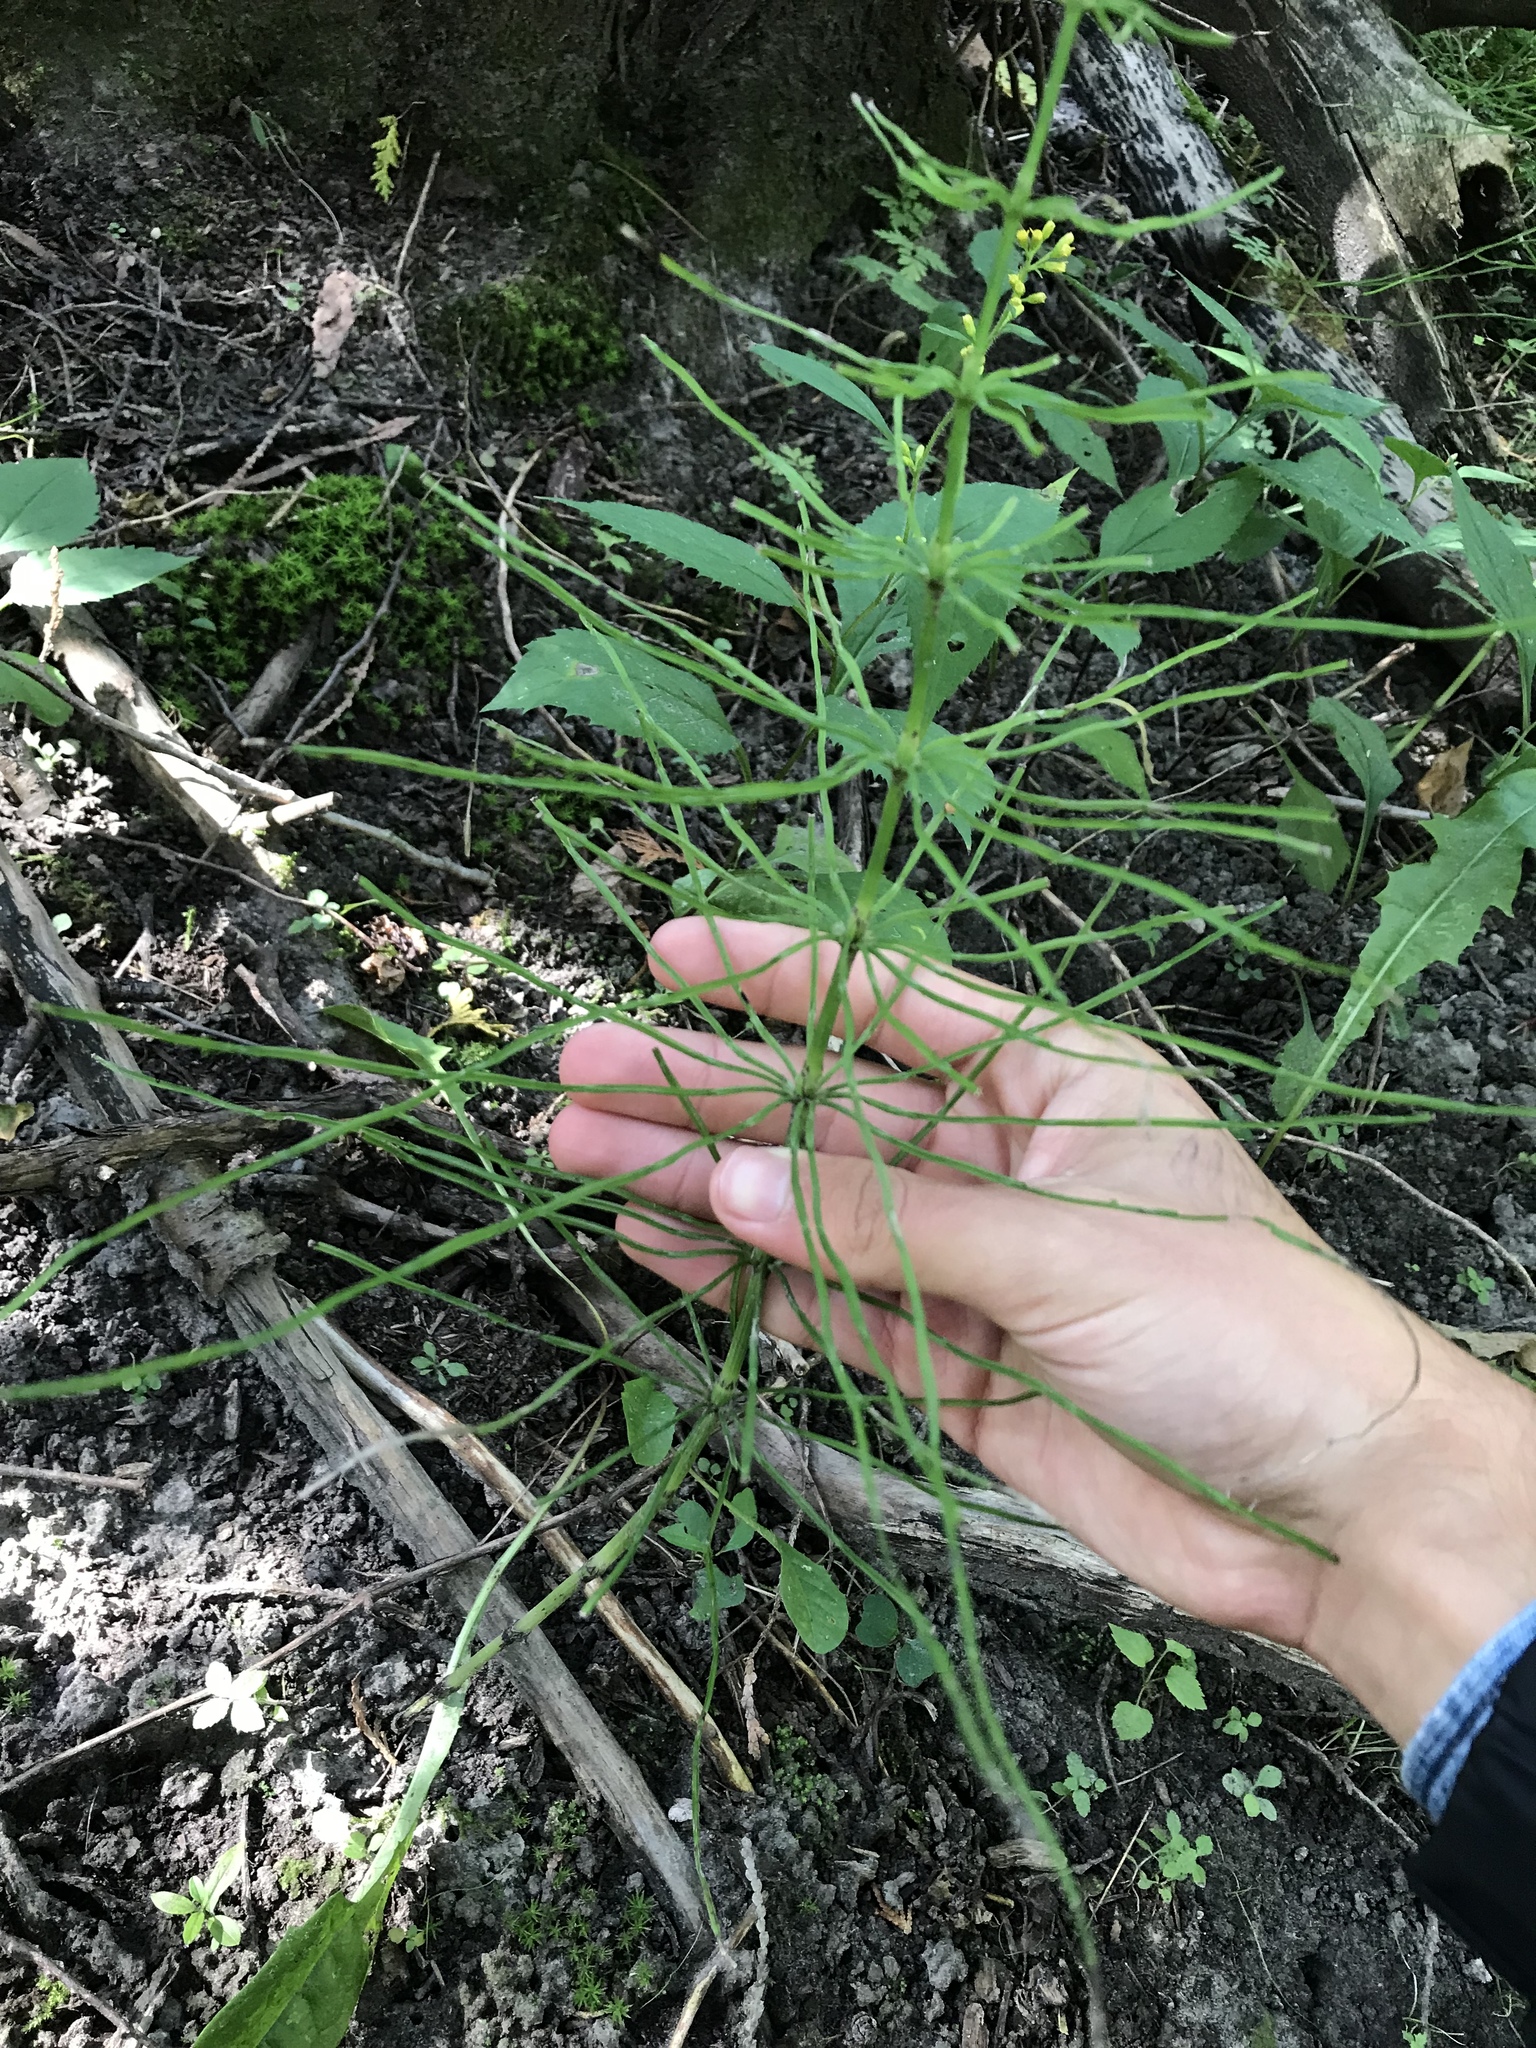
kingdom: Plantae
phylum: Tracheophyta
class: Polypodiopsida
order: Equisetales
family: Equisetaceae
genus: Equisetum
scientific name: Equisetum arvense
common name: Field horsetail
